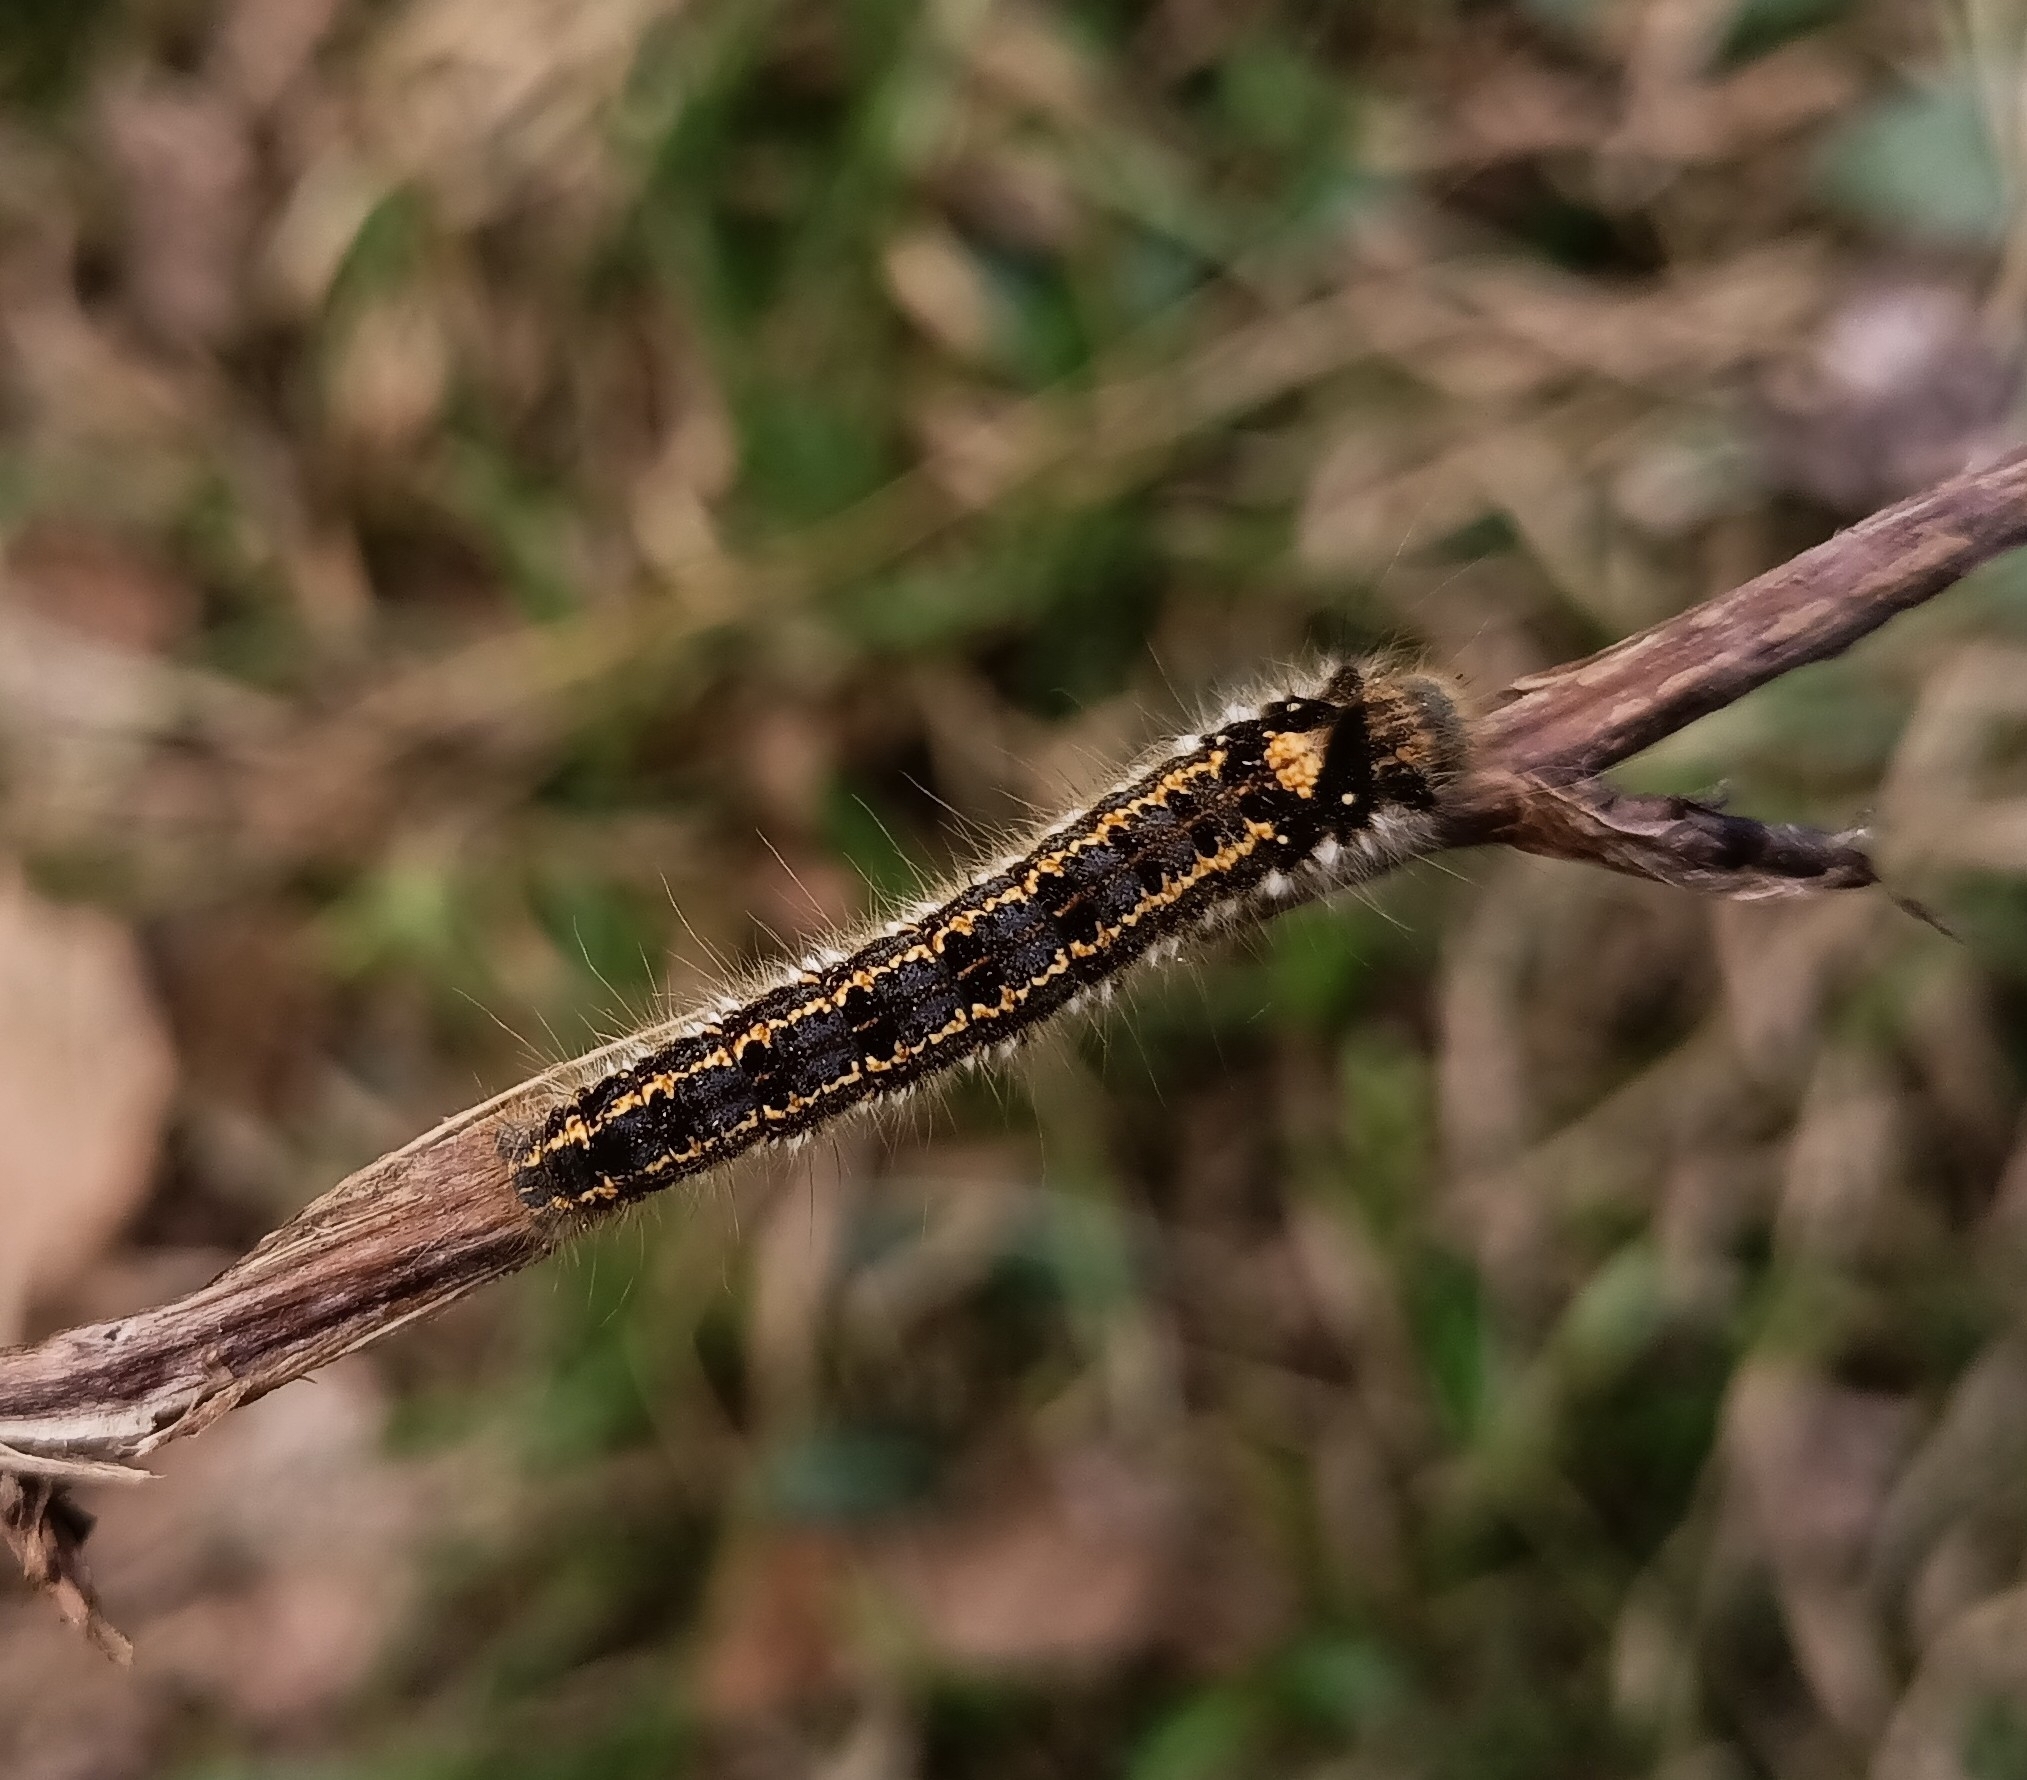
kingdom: Animalia
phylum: Arthropoda
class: Insecta
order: Lepidoptera
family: Lasiocampidae
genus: Euthrix
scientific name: Euthrix potatoria
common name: Drinker
